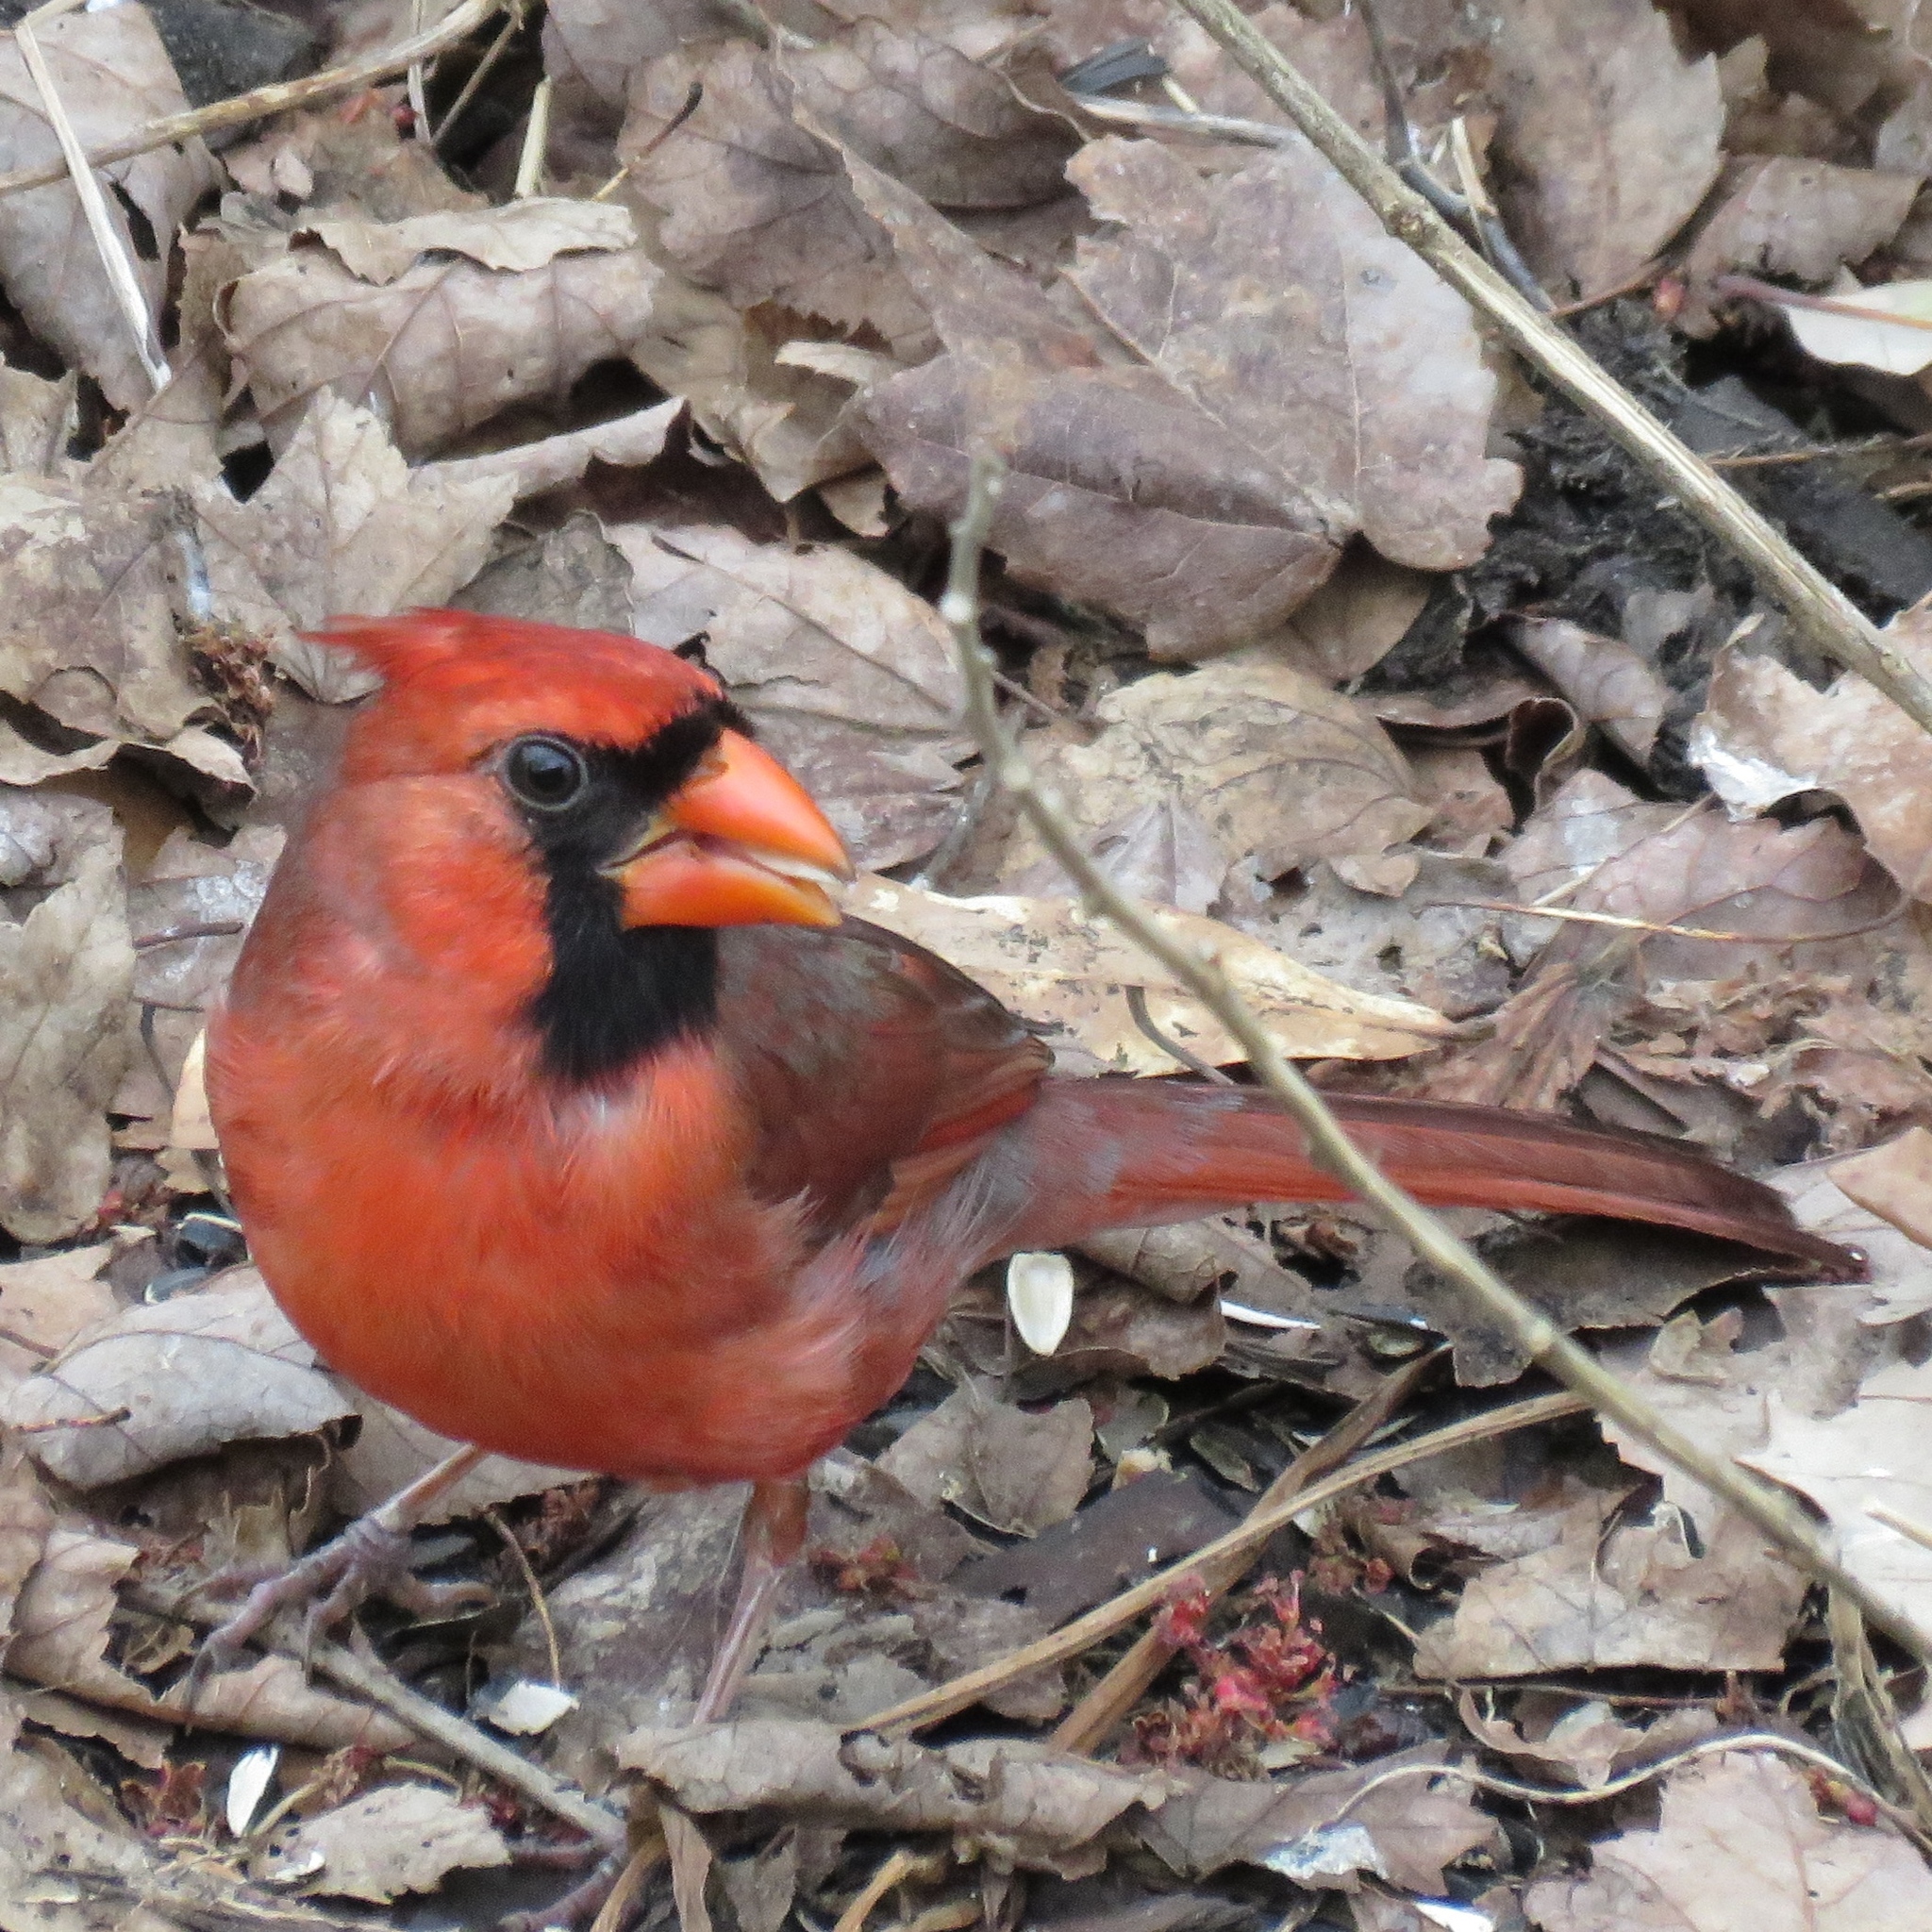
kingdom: Animalia
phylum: Chordata
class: Aves
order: Passeriformes
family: Cardinalidae
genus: Cardinalis
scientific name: Cardinalis cardinalis
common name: Northern cardinal
